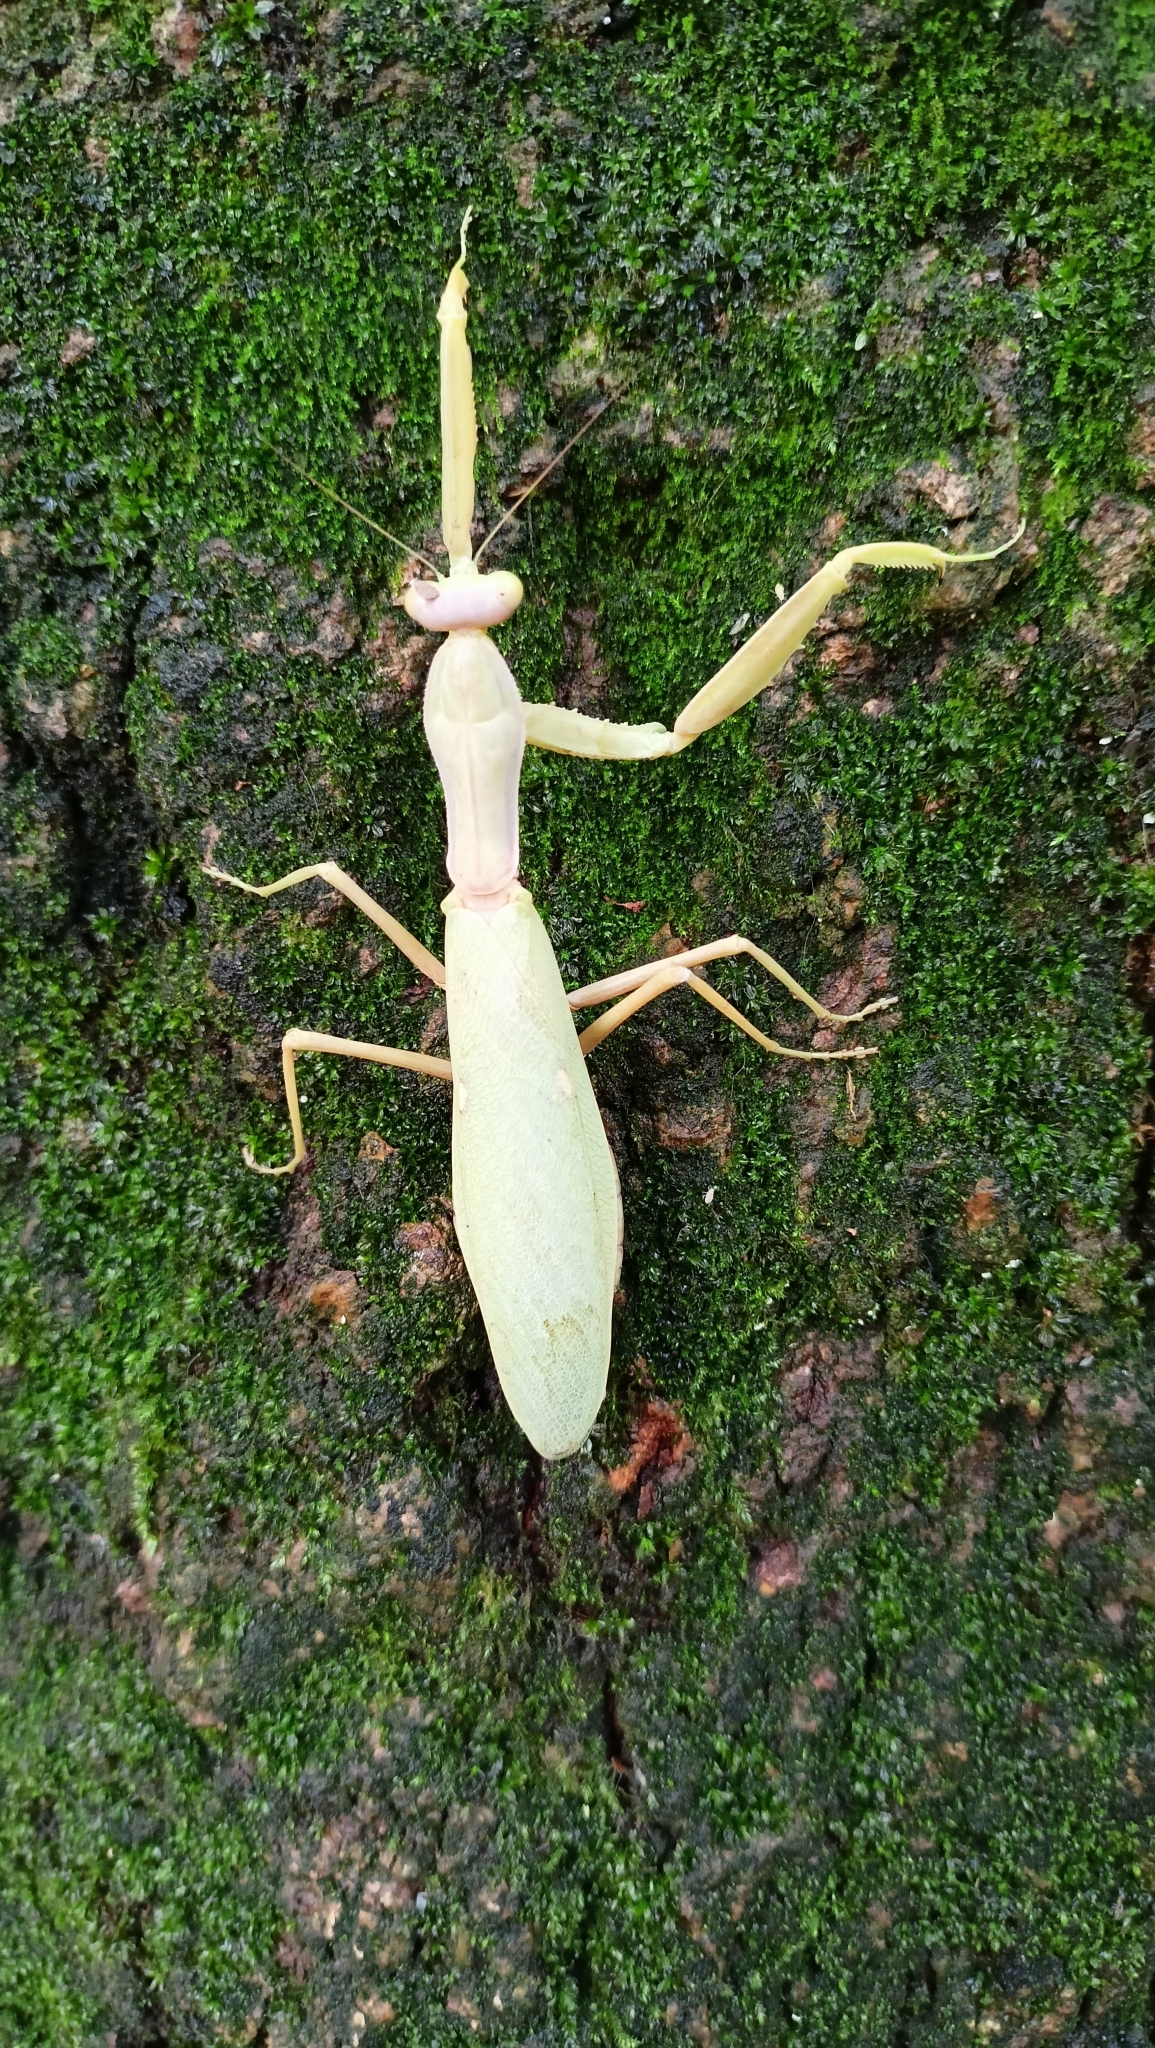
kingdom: Animalia
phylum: Arthropoda
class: Insecta
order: Mantodea
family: Mantidae
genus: Hierodula
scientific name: Hierodula transcaucasica
